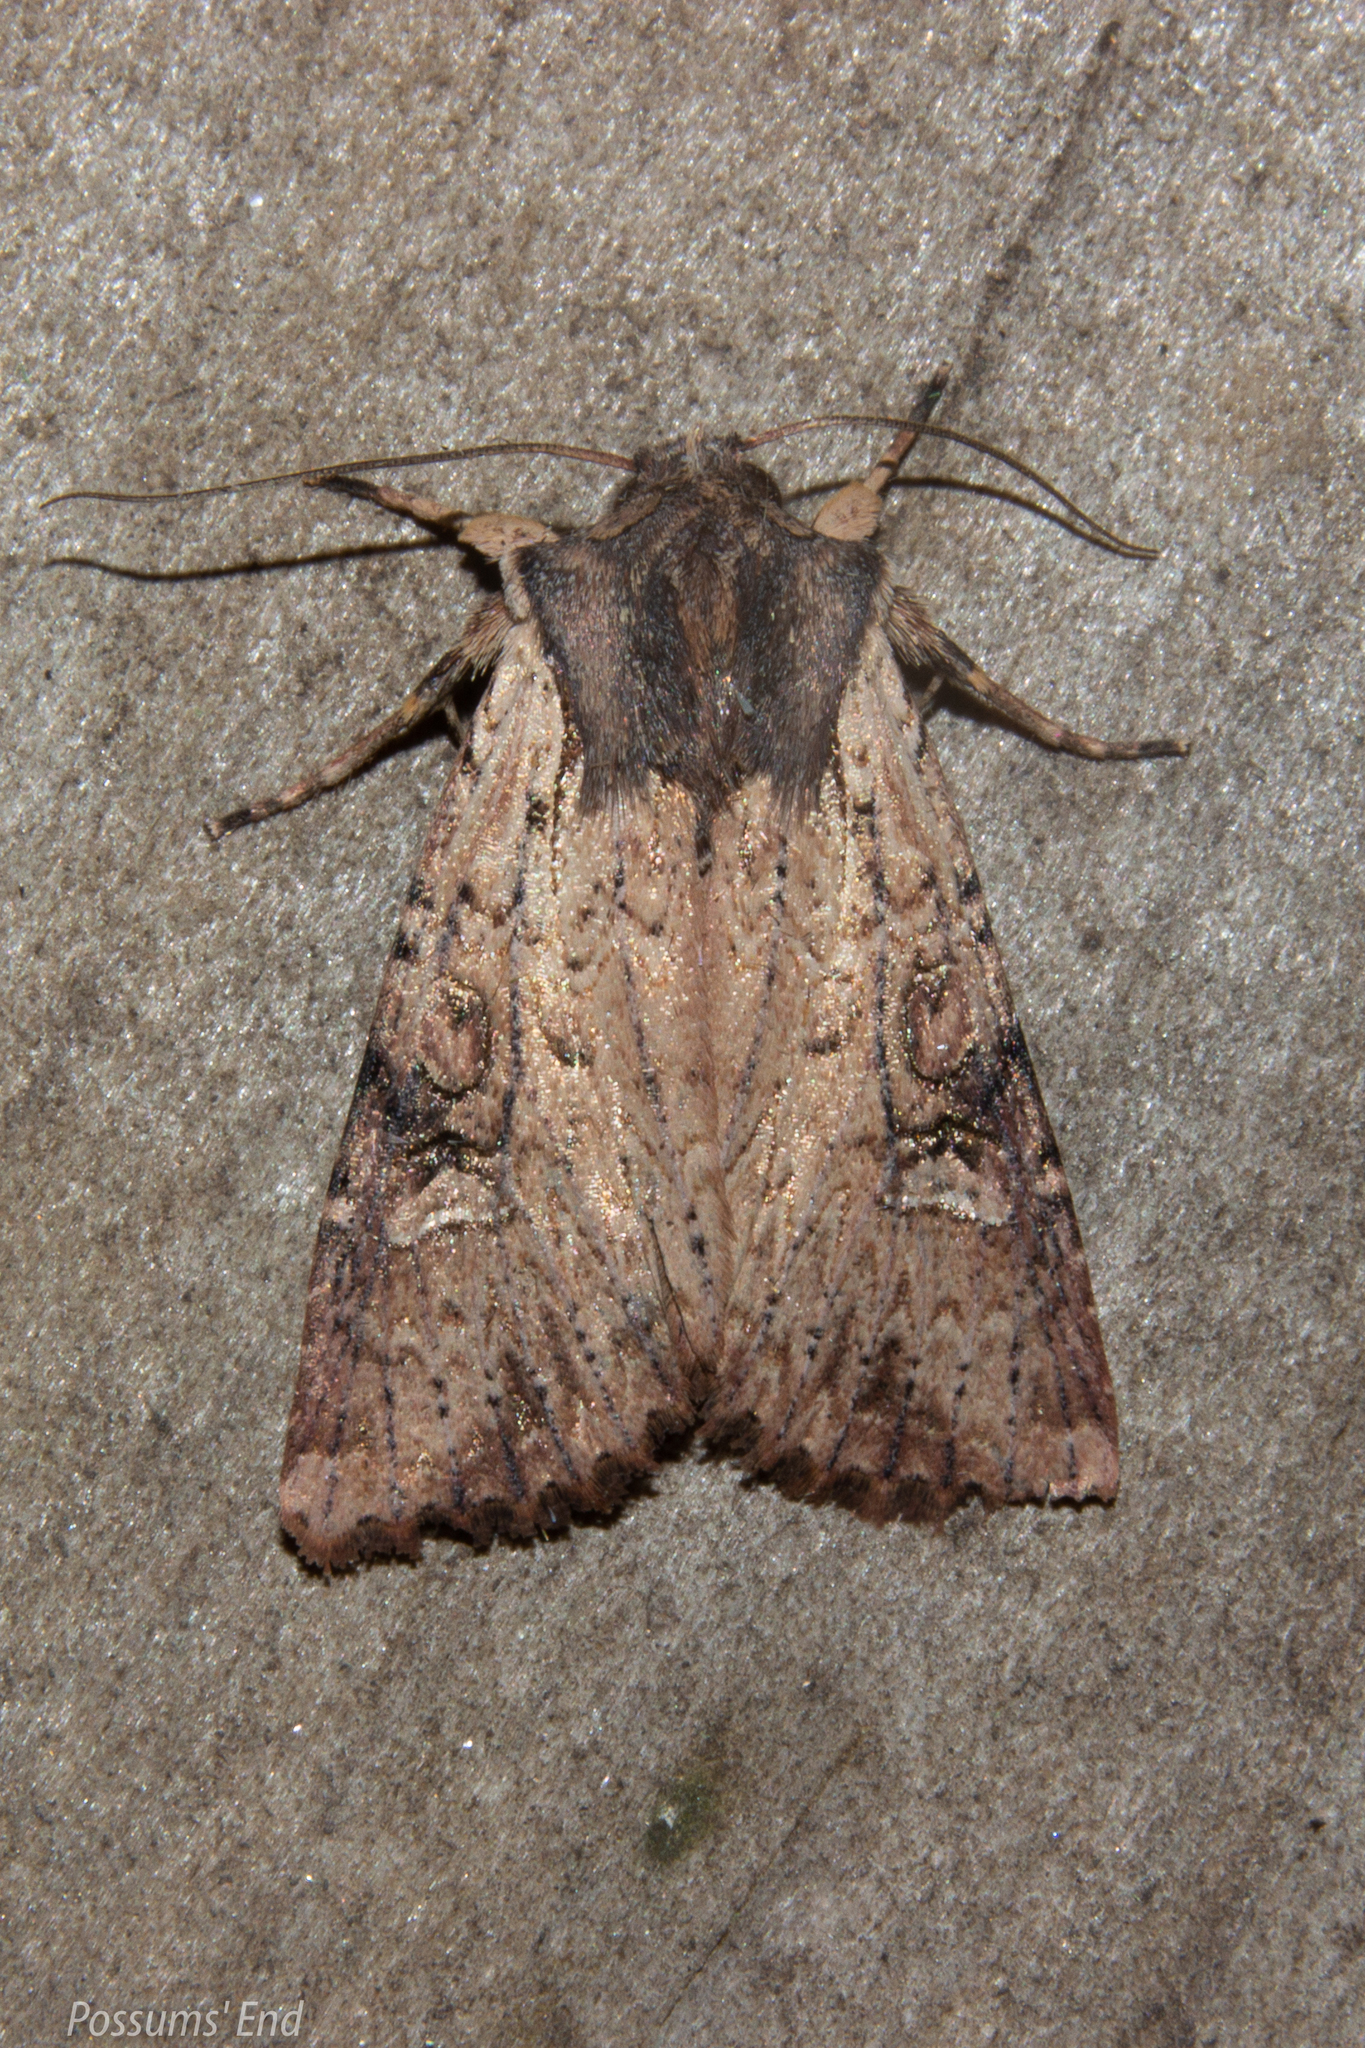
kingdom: Animalia
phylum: Arthropoda
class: Insecta
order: Lepidoptera
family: Noctuidae
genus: Ichneutica
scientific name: Ichneutica omoplaca
